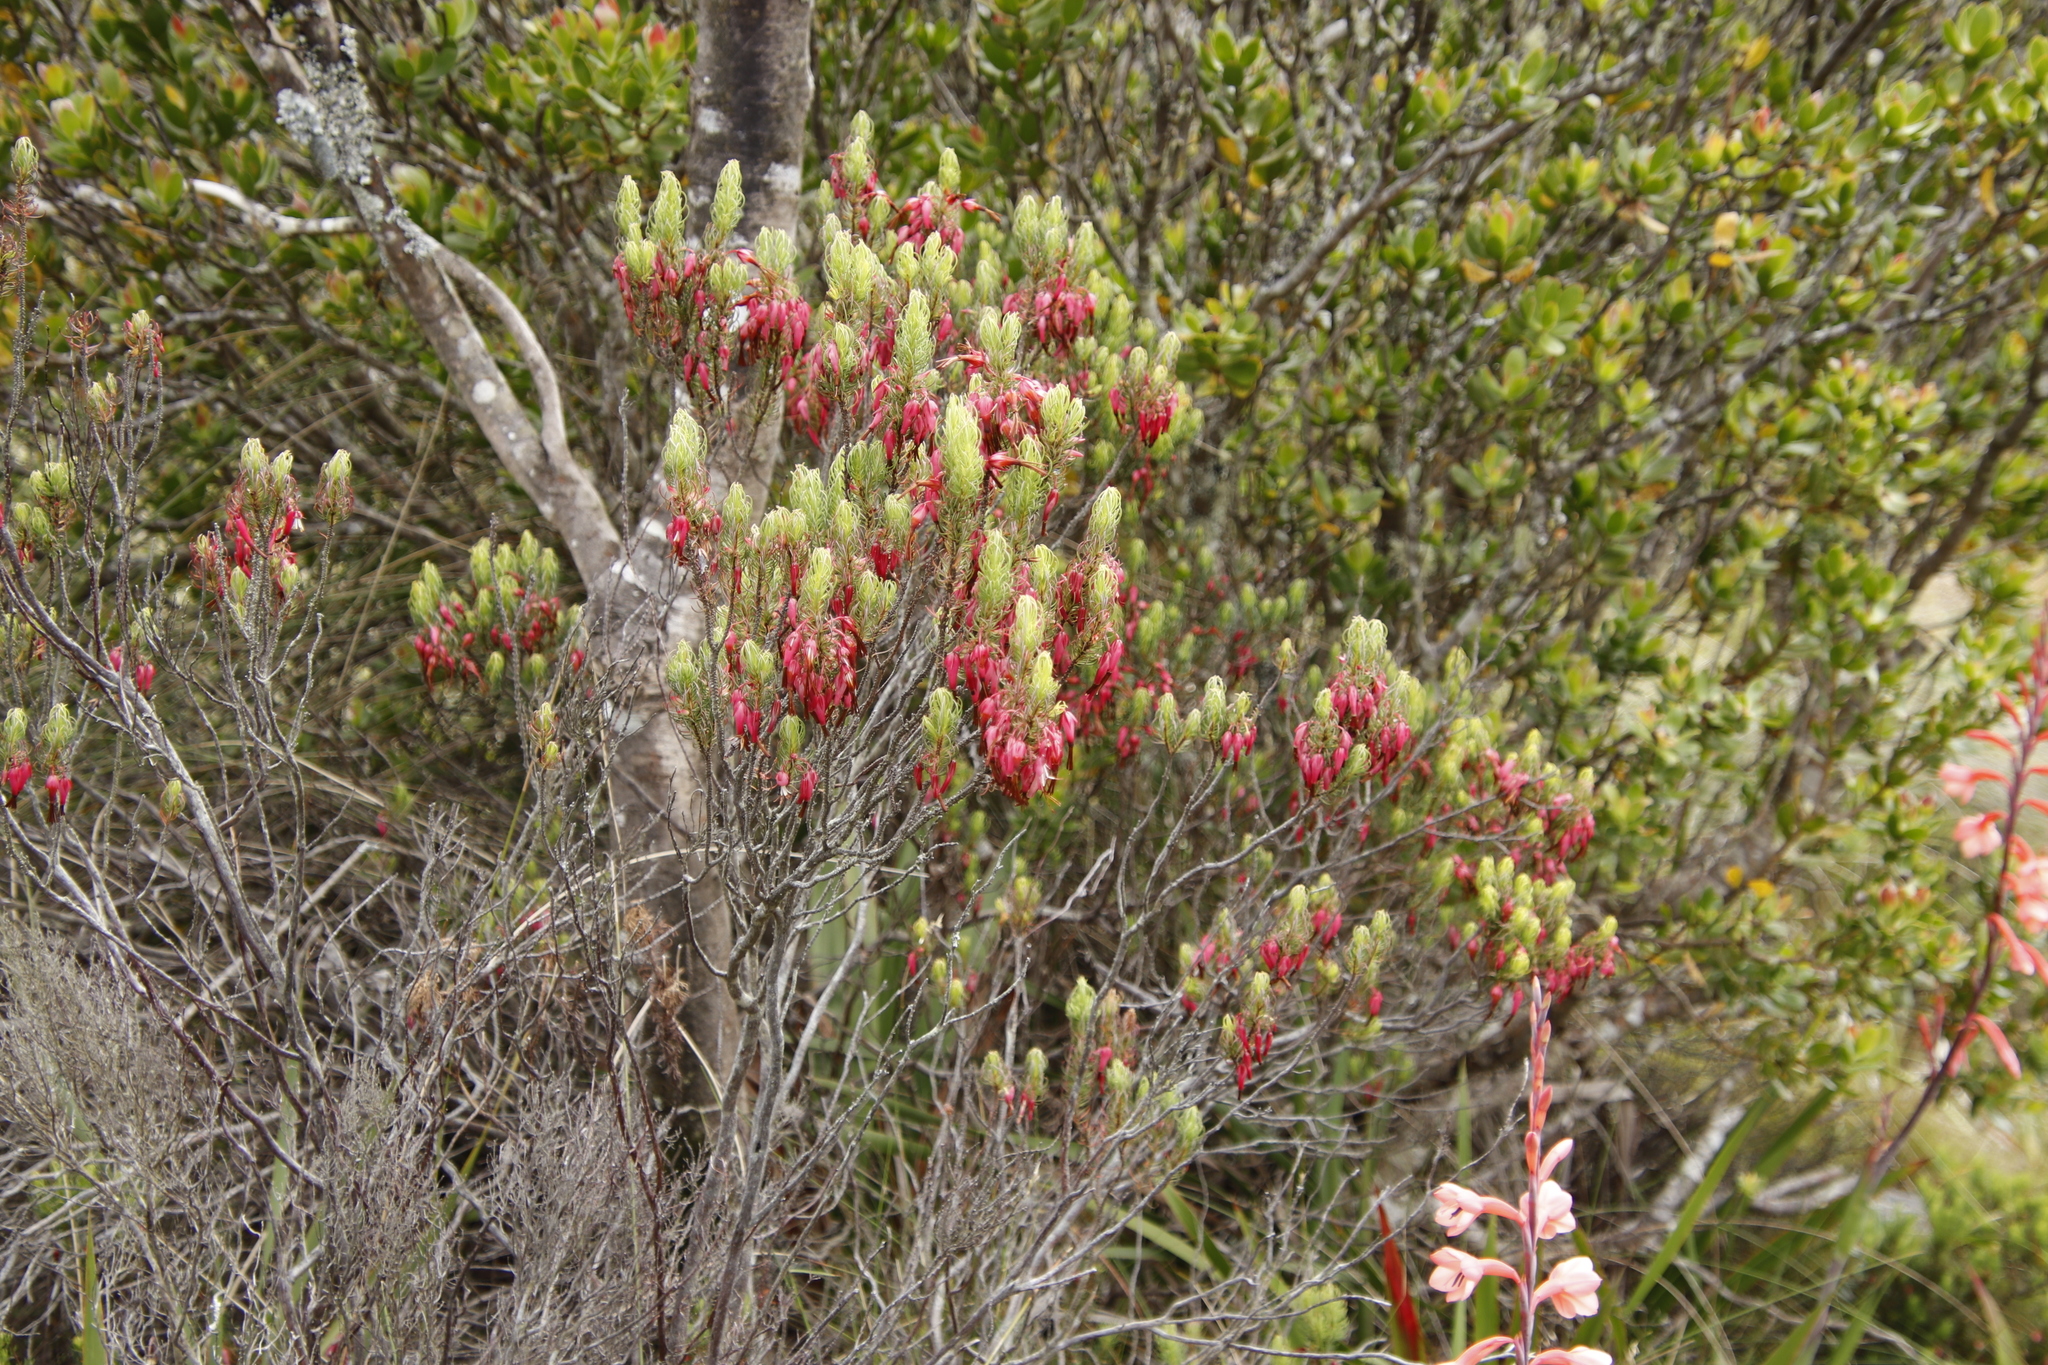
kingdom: Plantae
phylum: Tracheophyta
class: Magnoliopsida
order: Ericales
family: Ericaceae
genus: Erica
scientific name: Erica plukenetii
